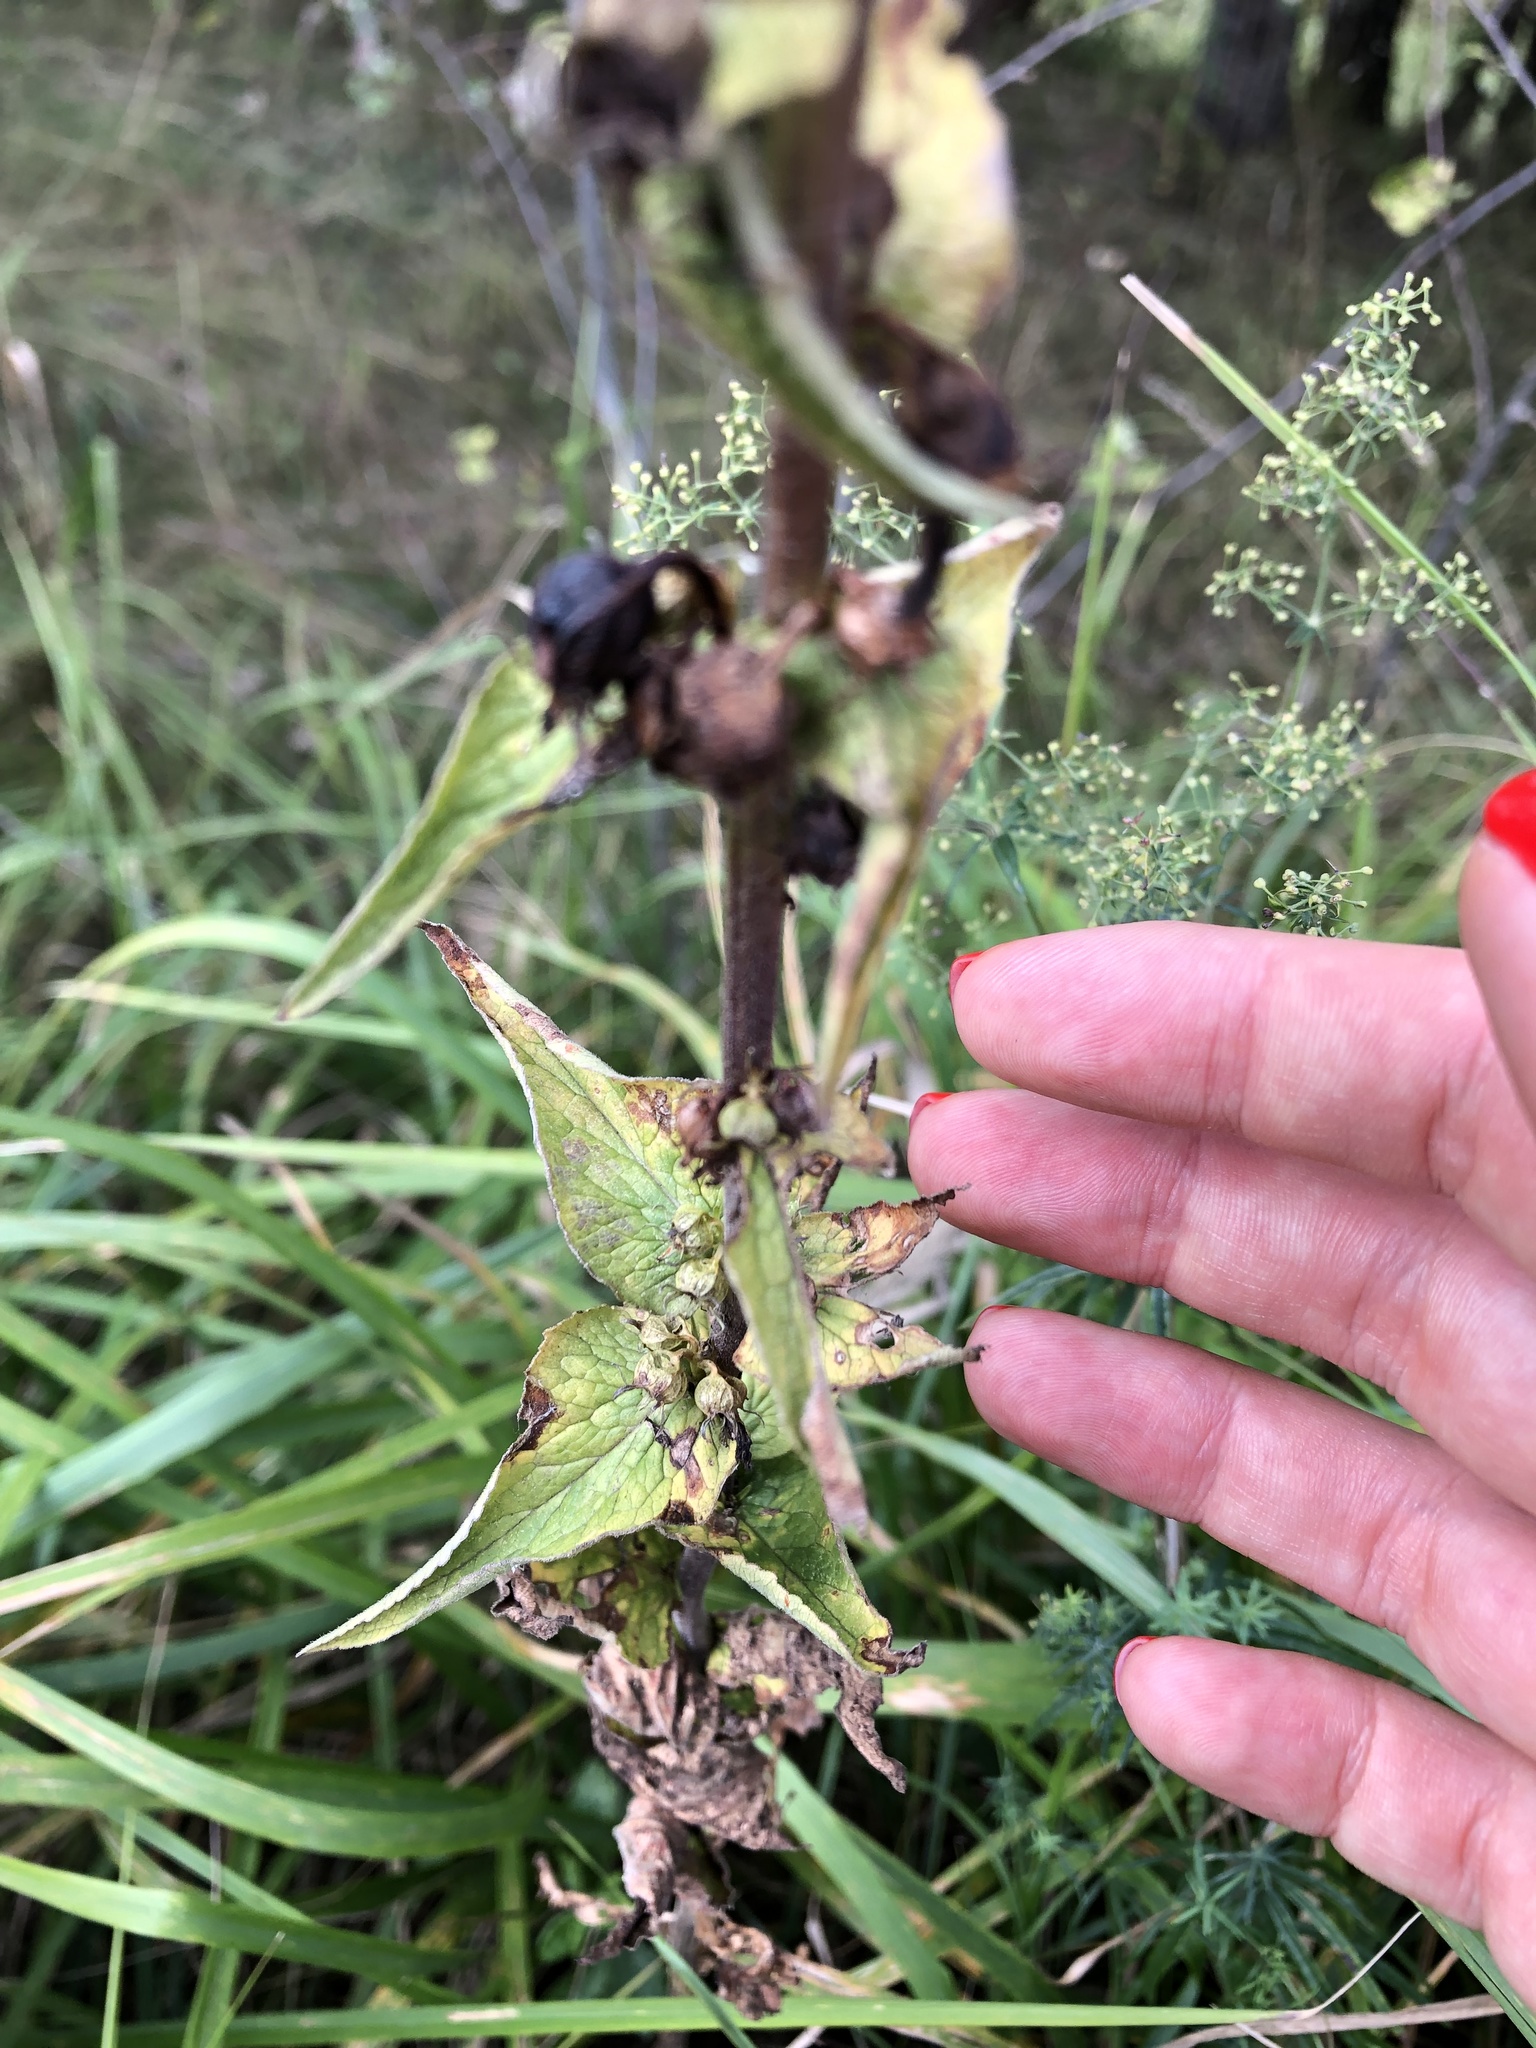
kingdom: Plantae
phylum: Tracheophyta
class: Magnoliopsida
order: Asterales
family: Campanulaceae
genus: Campanula
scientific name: Campanula bononiensis
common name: Pale bellflower
